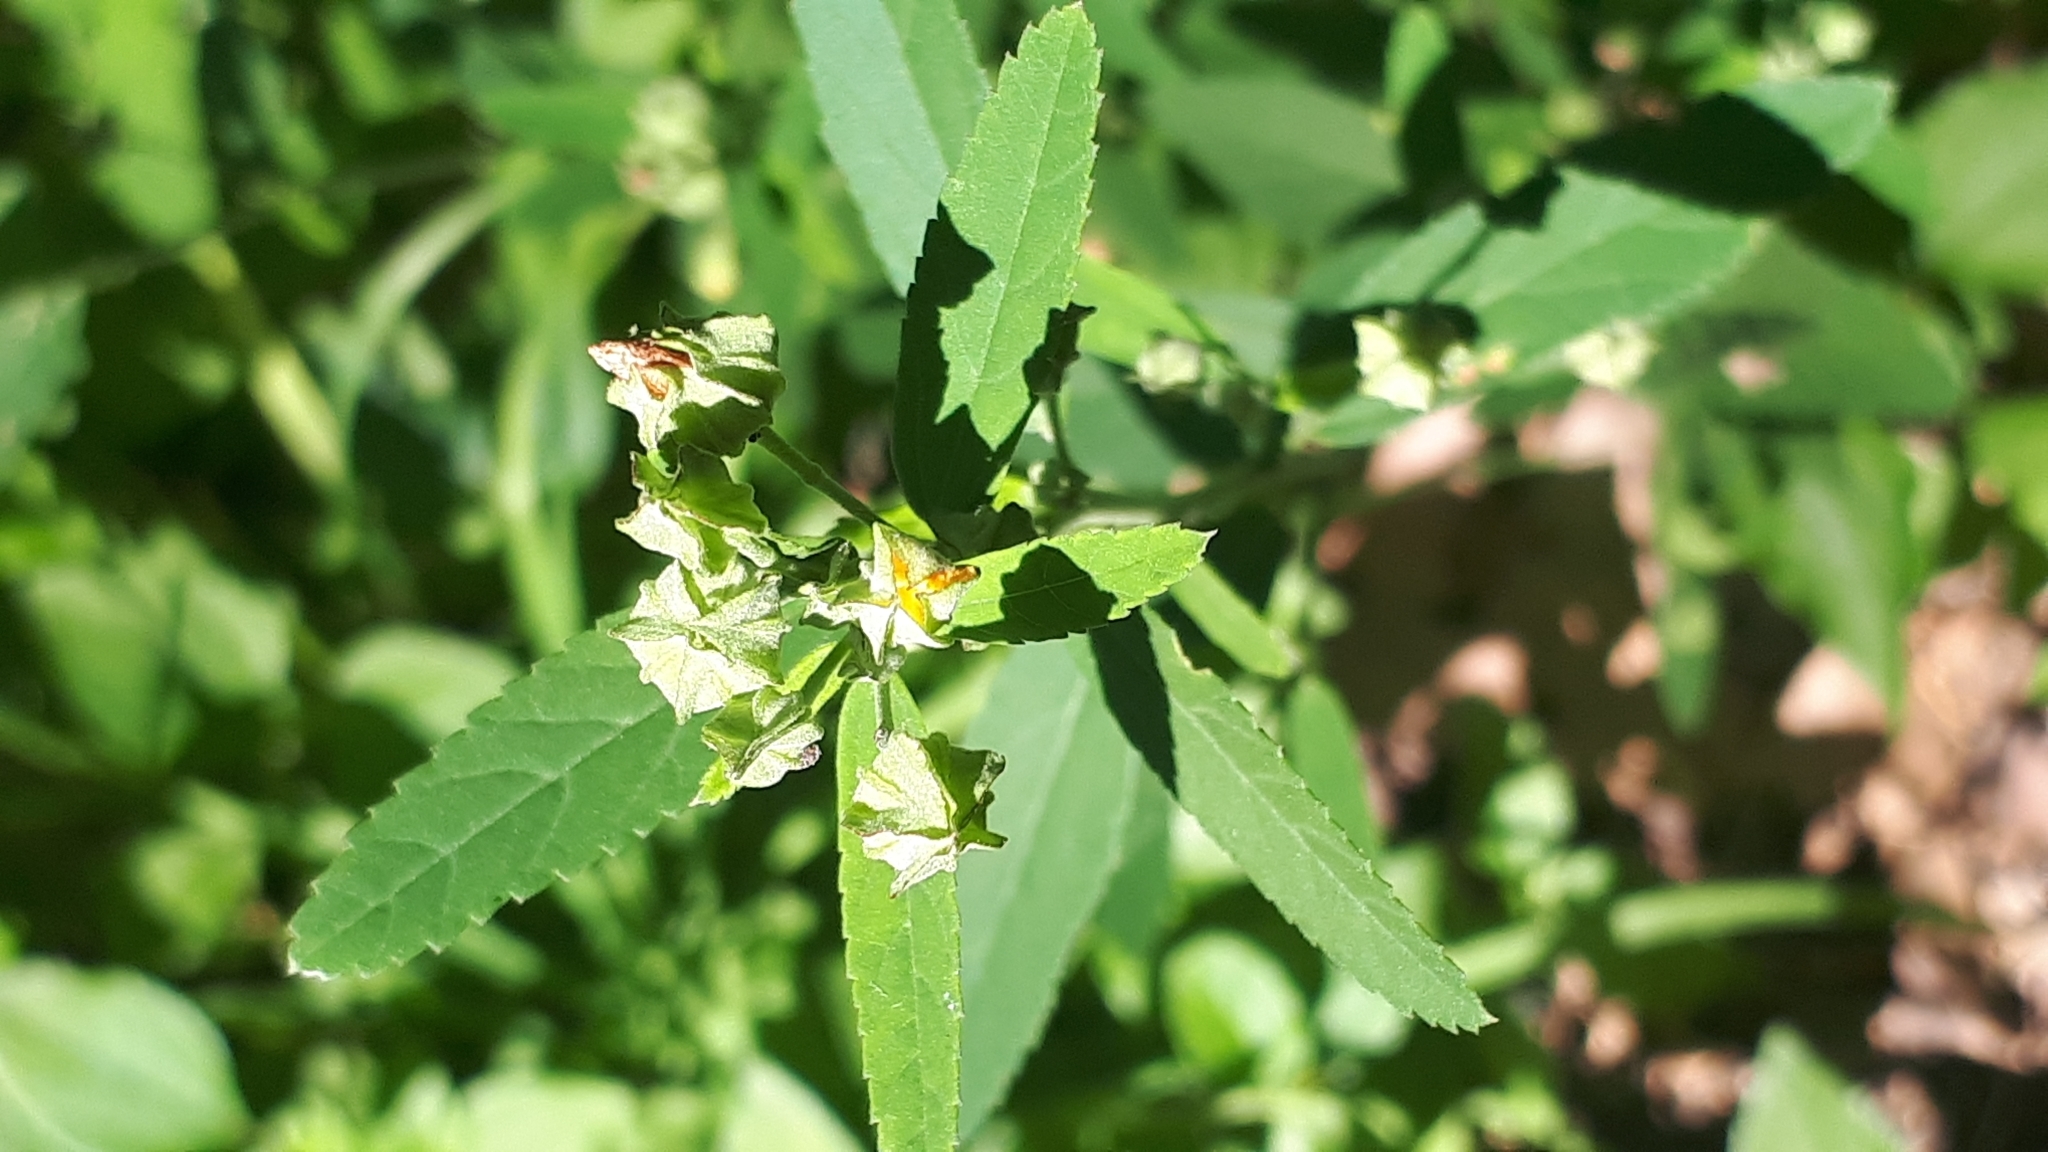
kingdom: Plantae
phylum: Tracheophyta
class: Magnoliopsida
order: Malvales
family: Malvaceae
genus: Sida
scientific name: Sida rhombifolia
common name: Queensland-hemp
